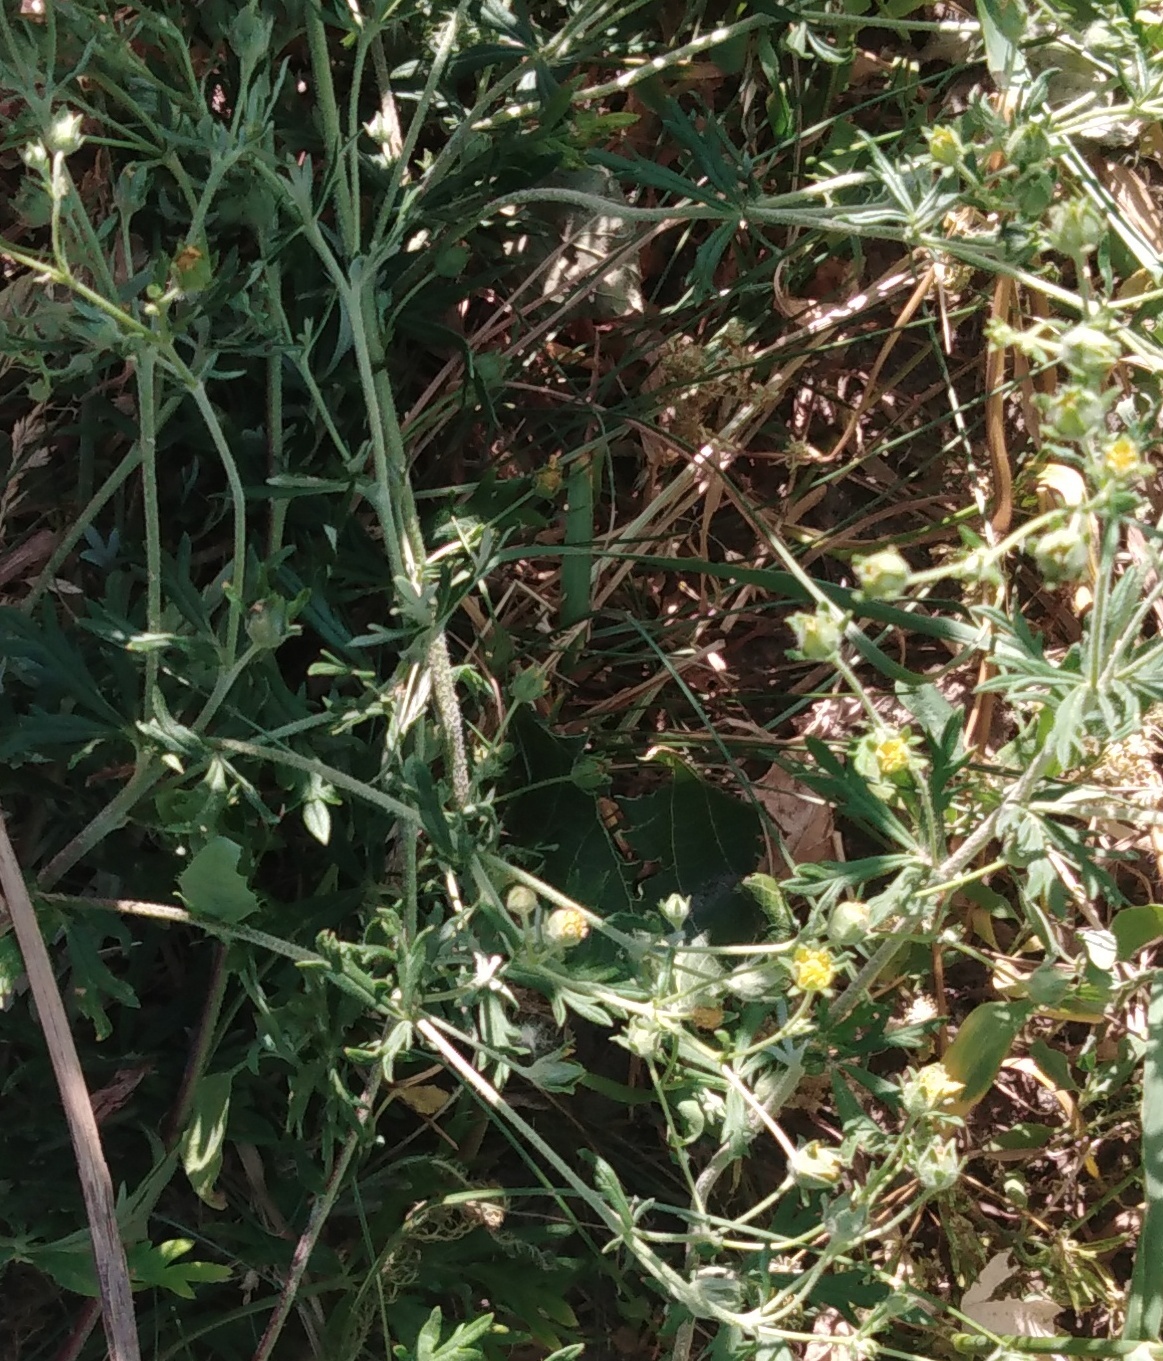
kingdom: Plantae
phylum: Tracheophyta
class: Magnoliopsida
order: Rosales
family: Rosaceae
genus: Potentilla
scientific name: Potentilla argentea
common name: Hoary cinquefoil
